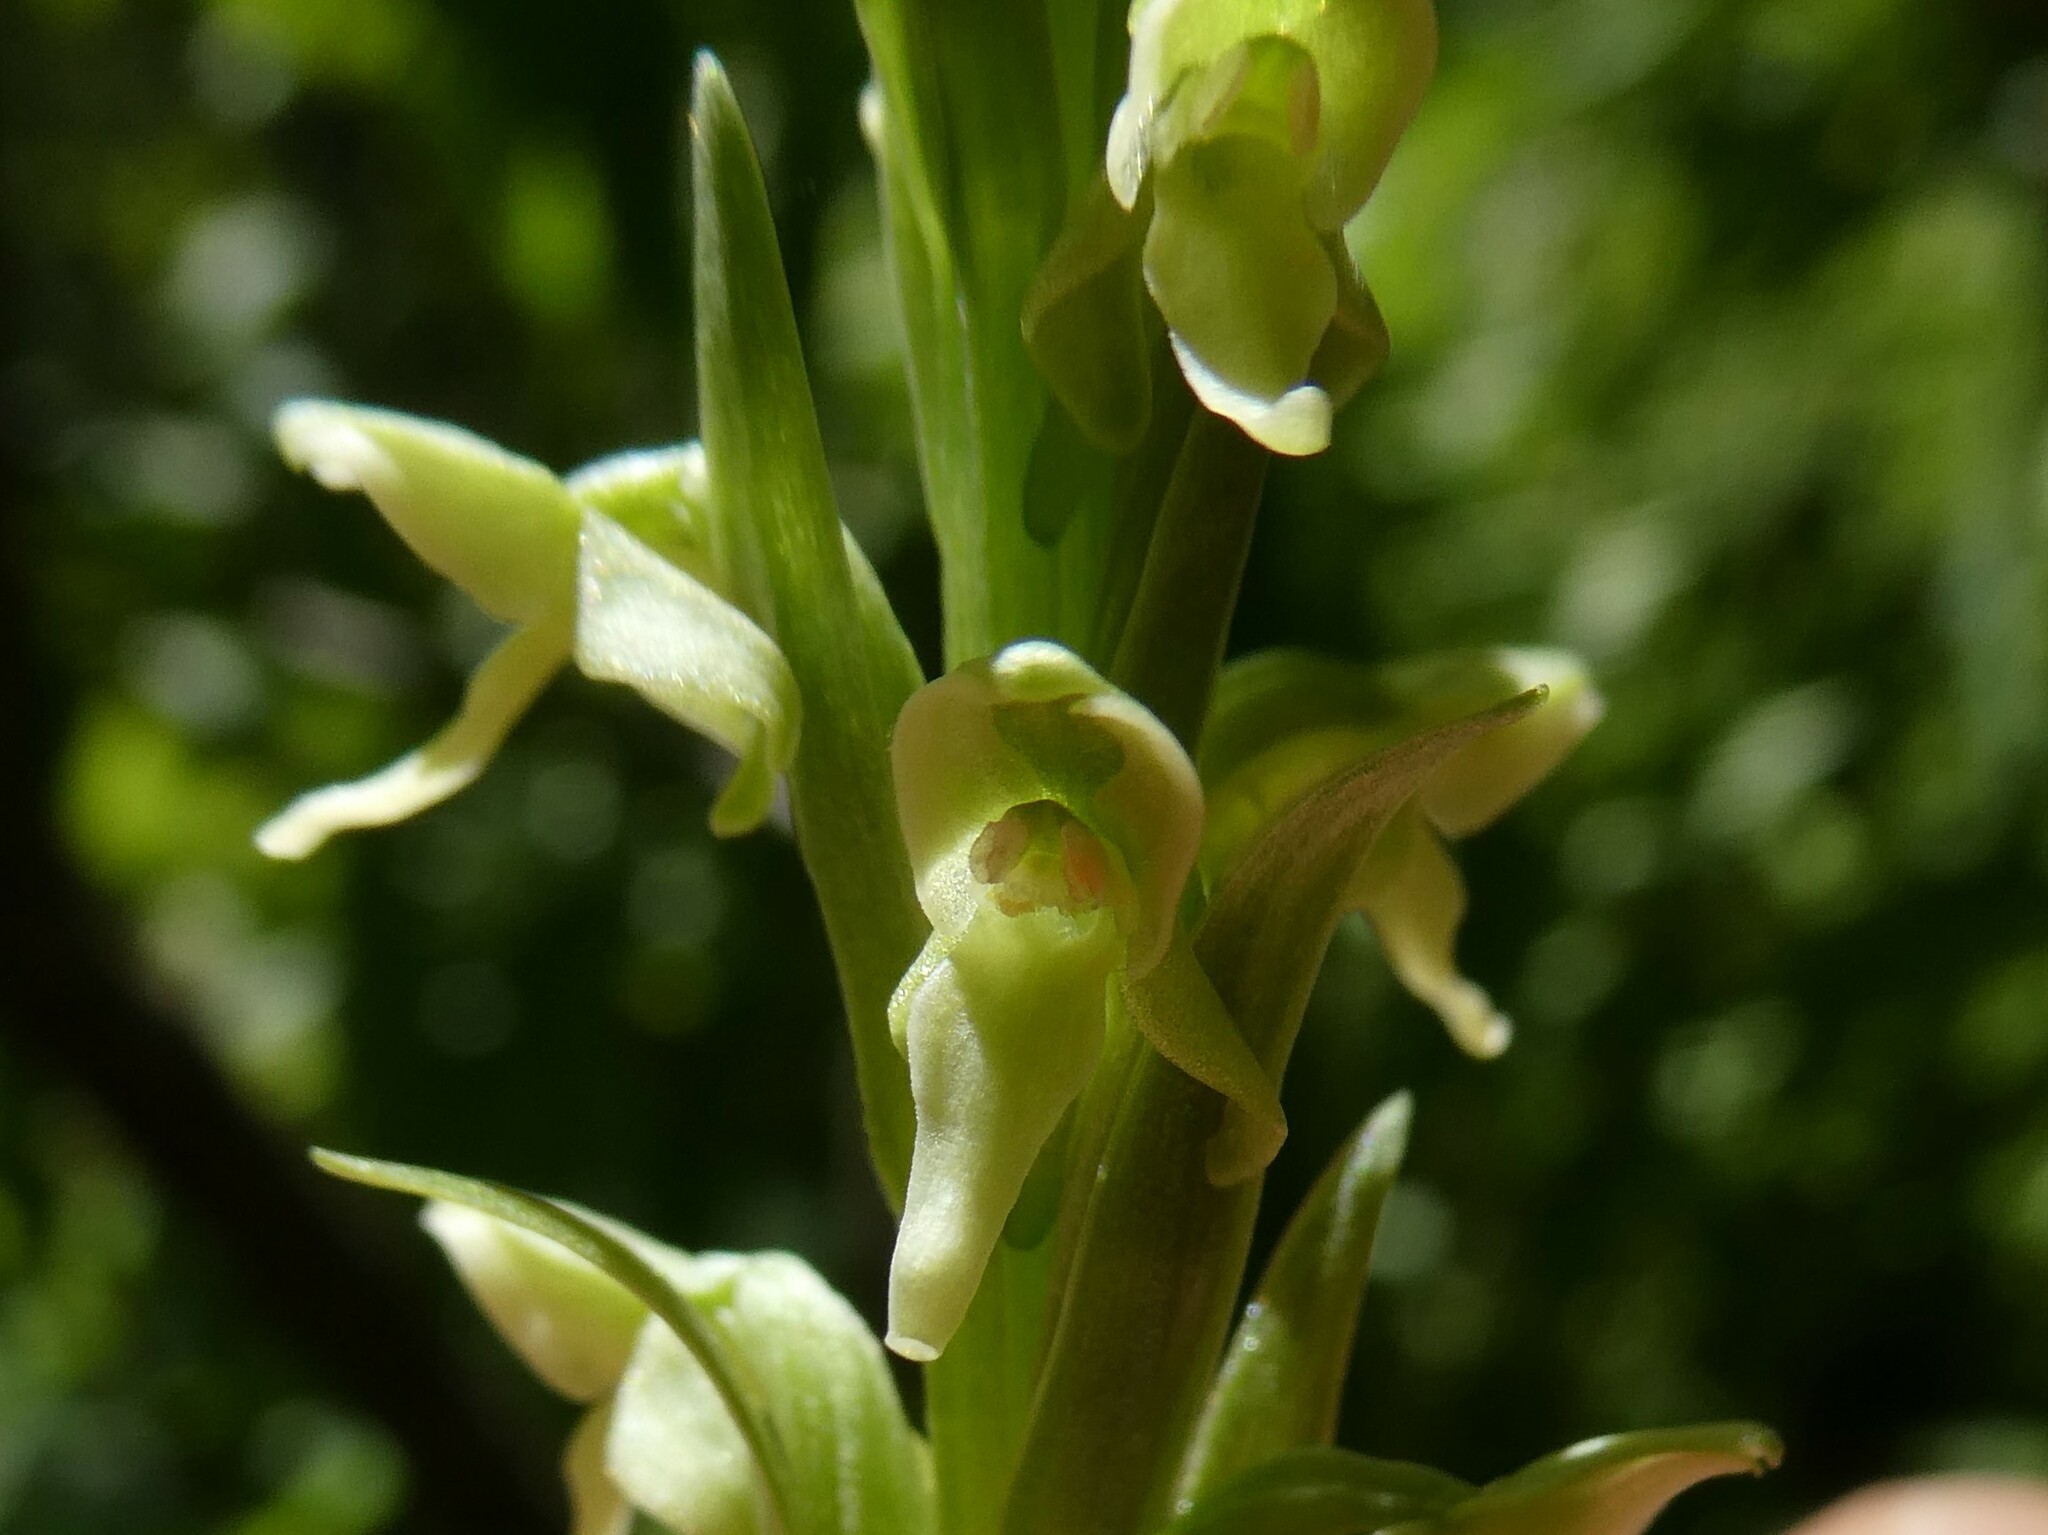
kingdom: Plantae
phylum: Tracheophyta
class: Liliopsida
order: Asparagales
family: Orchidaceae
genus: Platanthera
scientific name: Platanthera huronensis
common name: Fragrant green orchid
